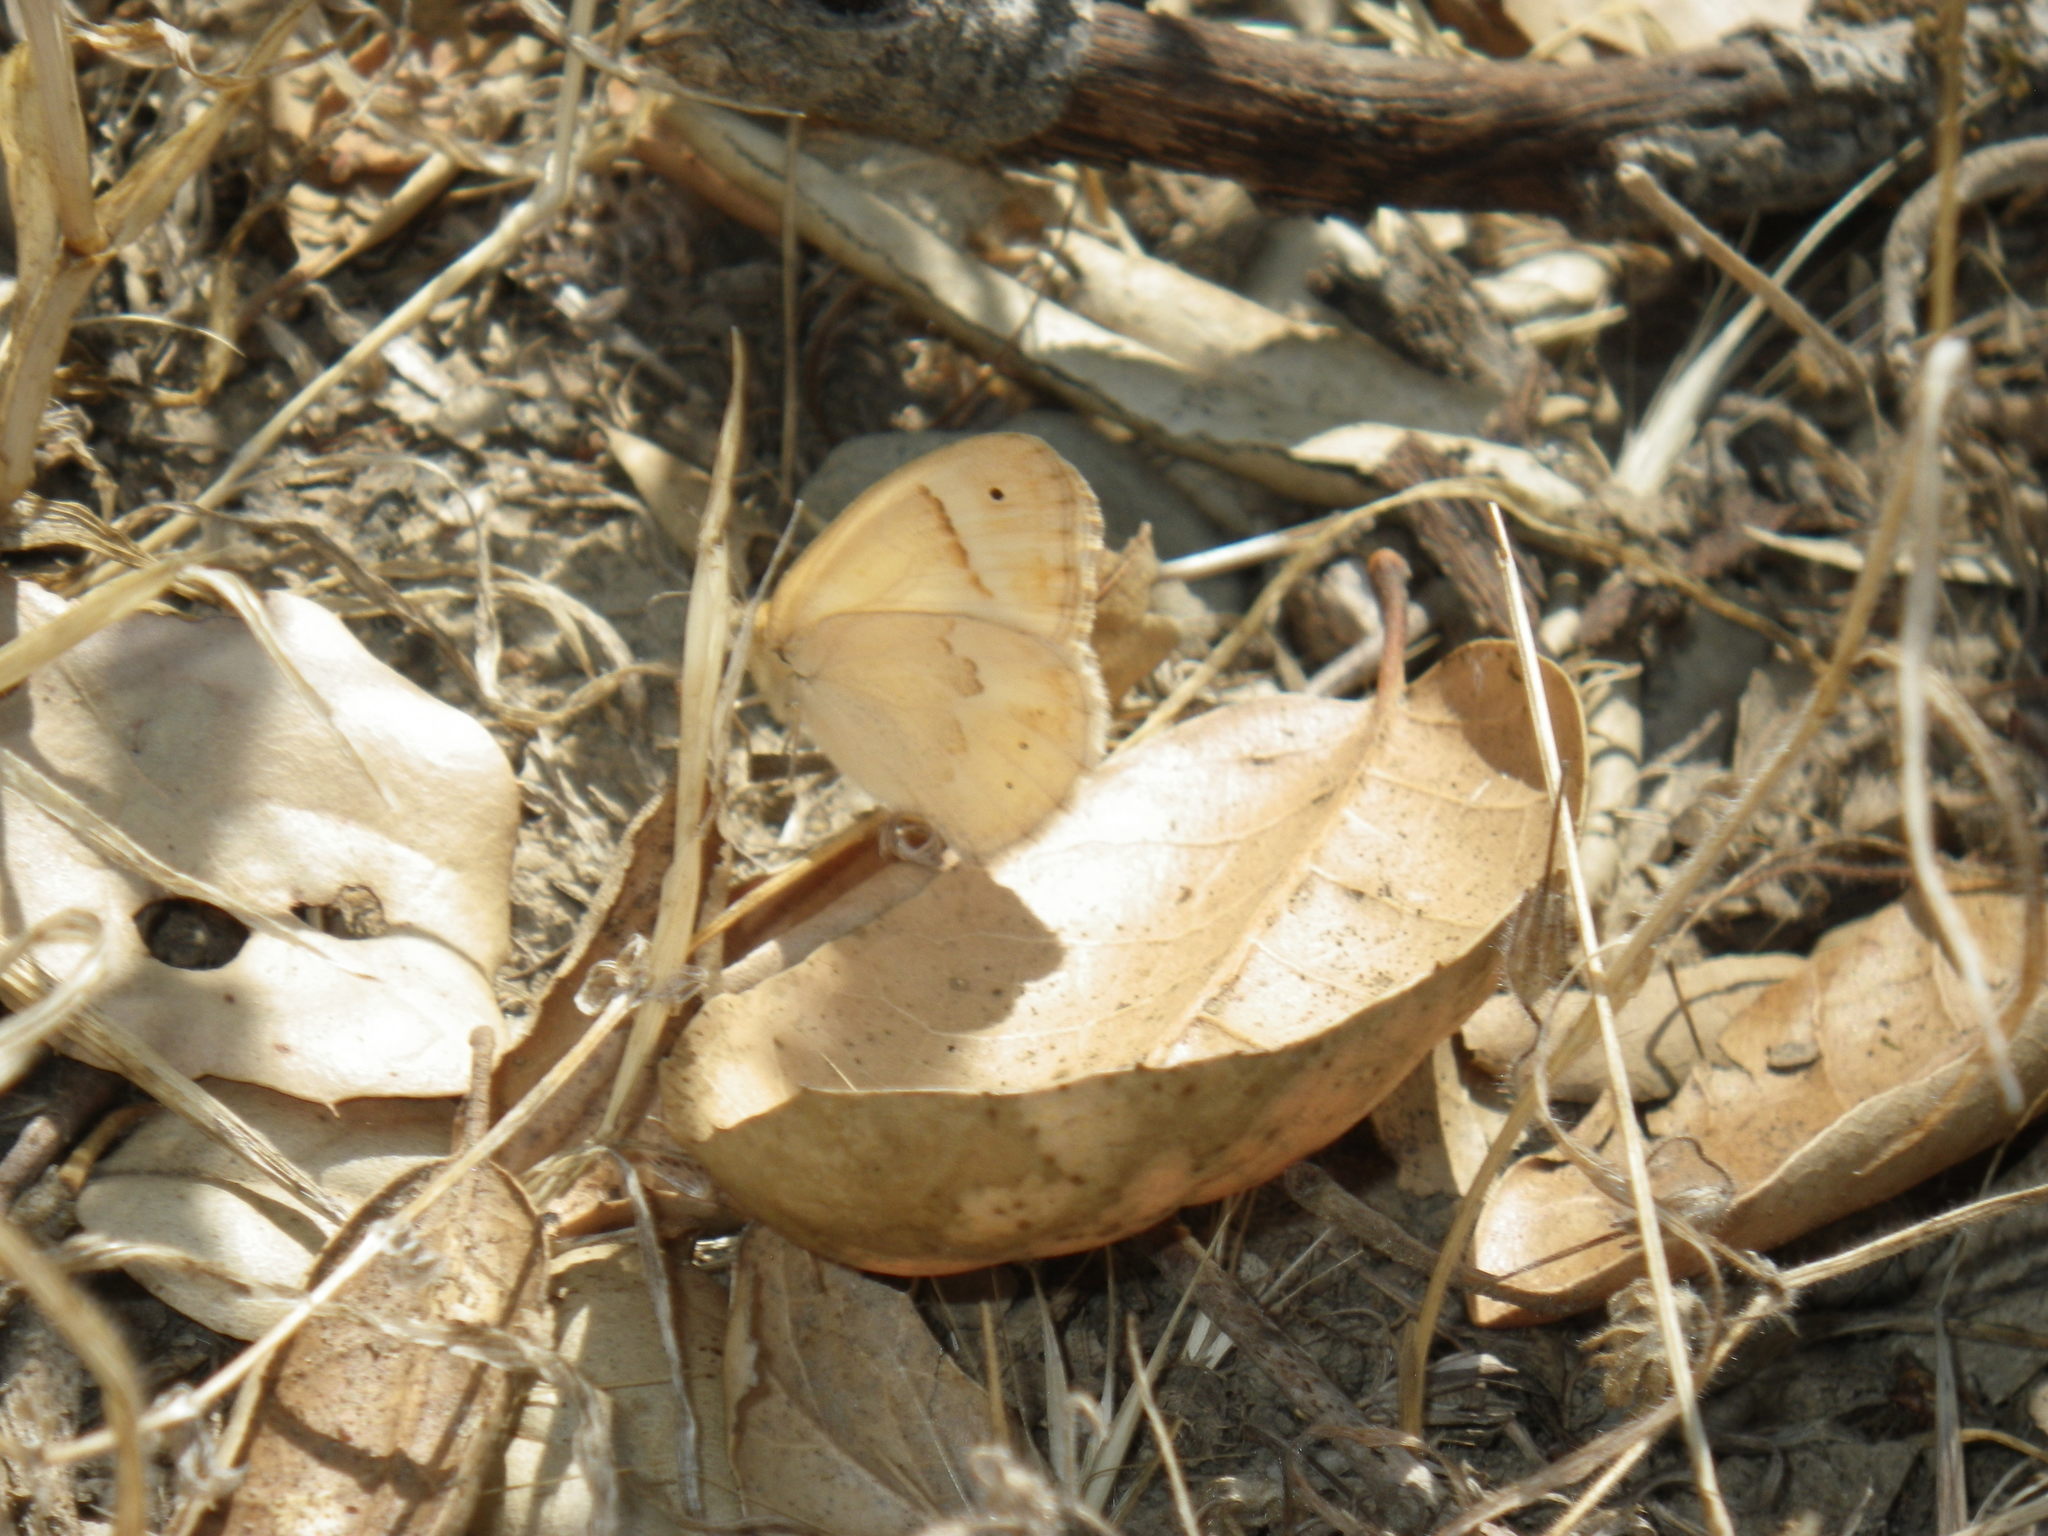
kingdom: Animalia
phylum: Arthropoda
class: Insecta
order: Lepidoptera
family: Nymphalidae
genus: Coenonympha
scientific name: Coenonympha california
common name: Common ringlet
